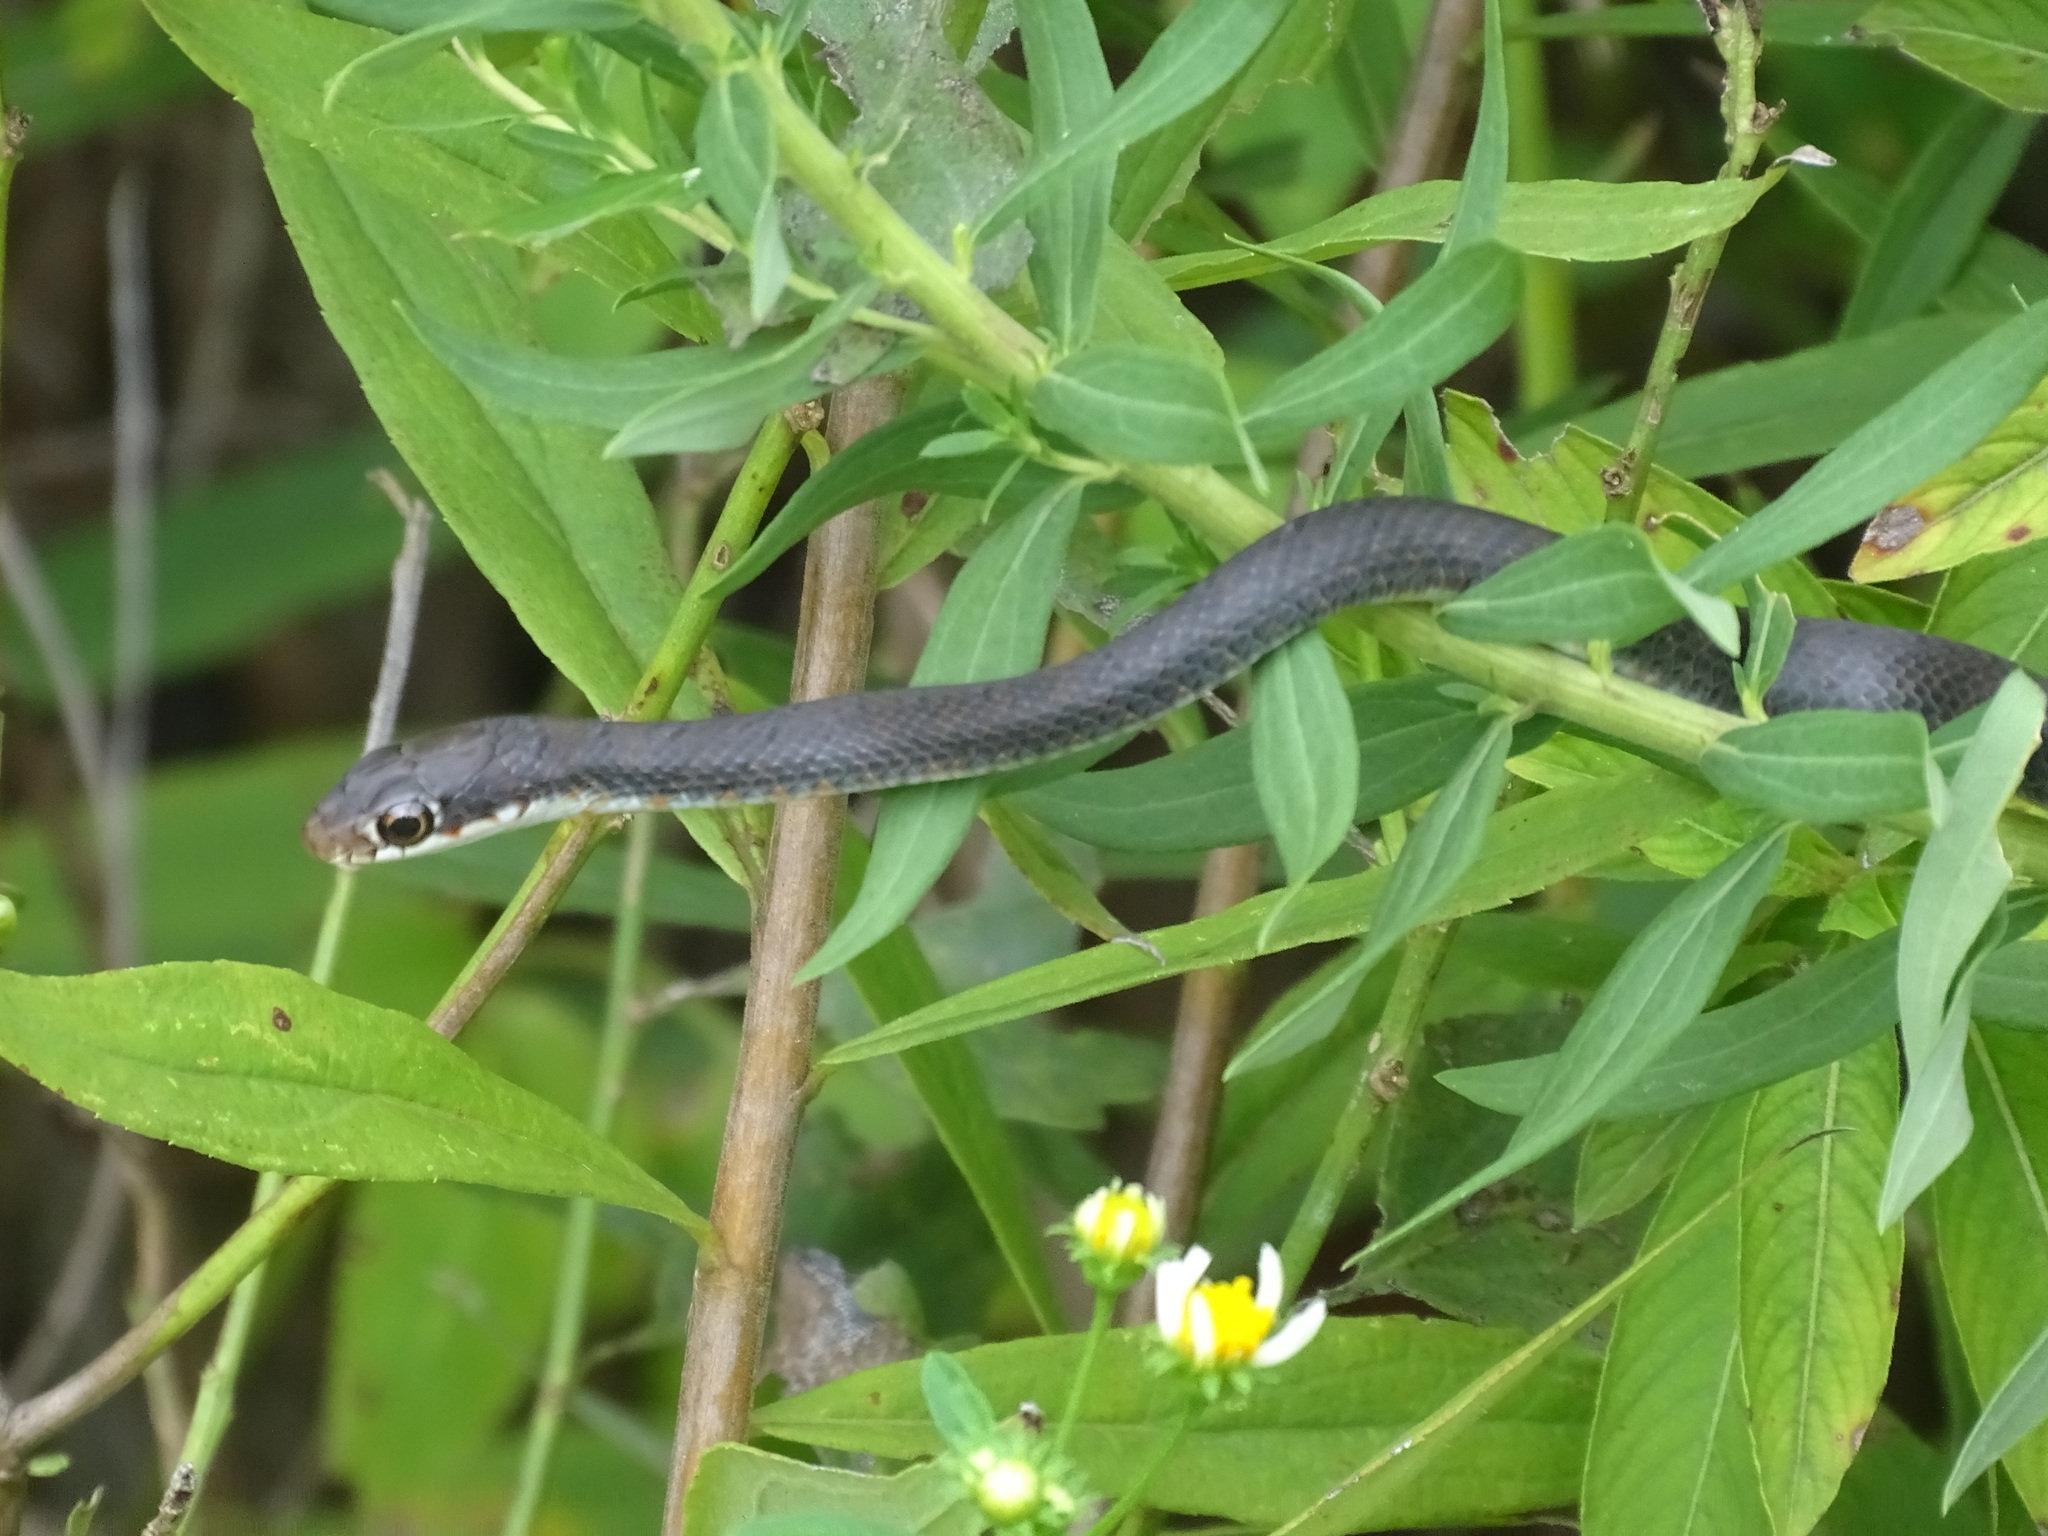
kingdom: Animalia
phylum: Chordata
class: Squamata
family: Colubridae
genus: Coluber
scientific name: Coluber constrictor
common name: Eastern racer
